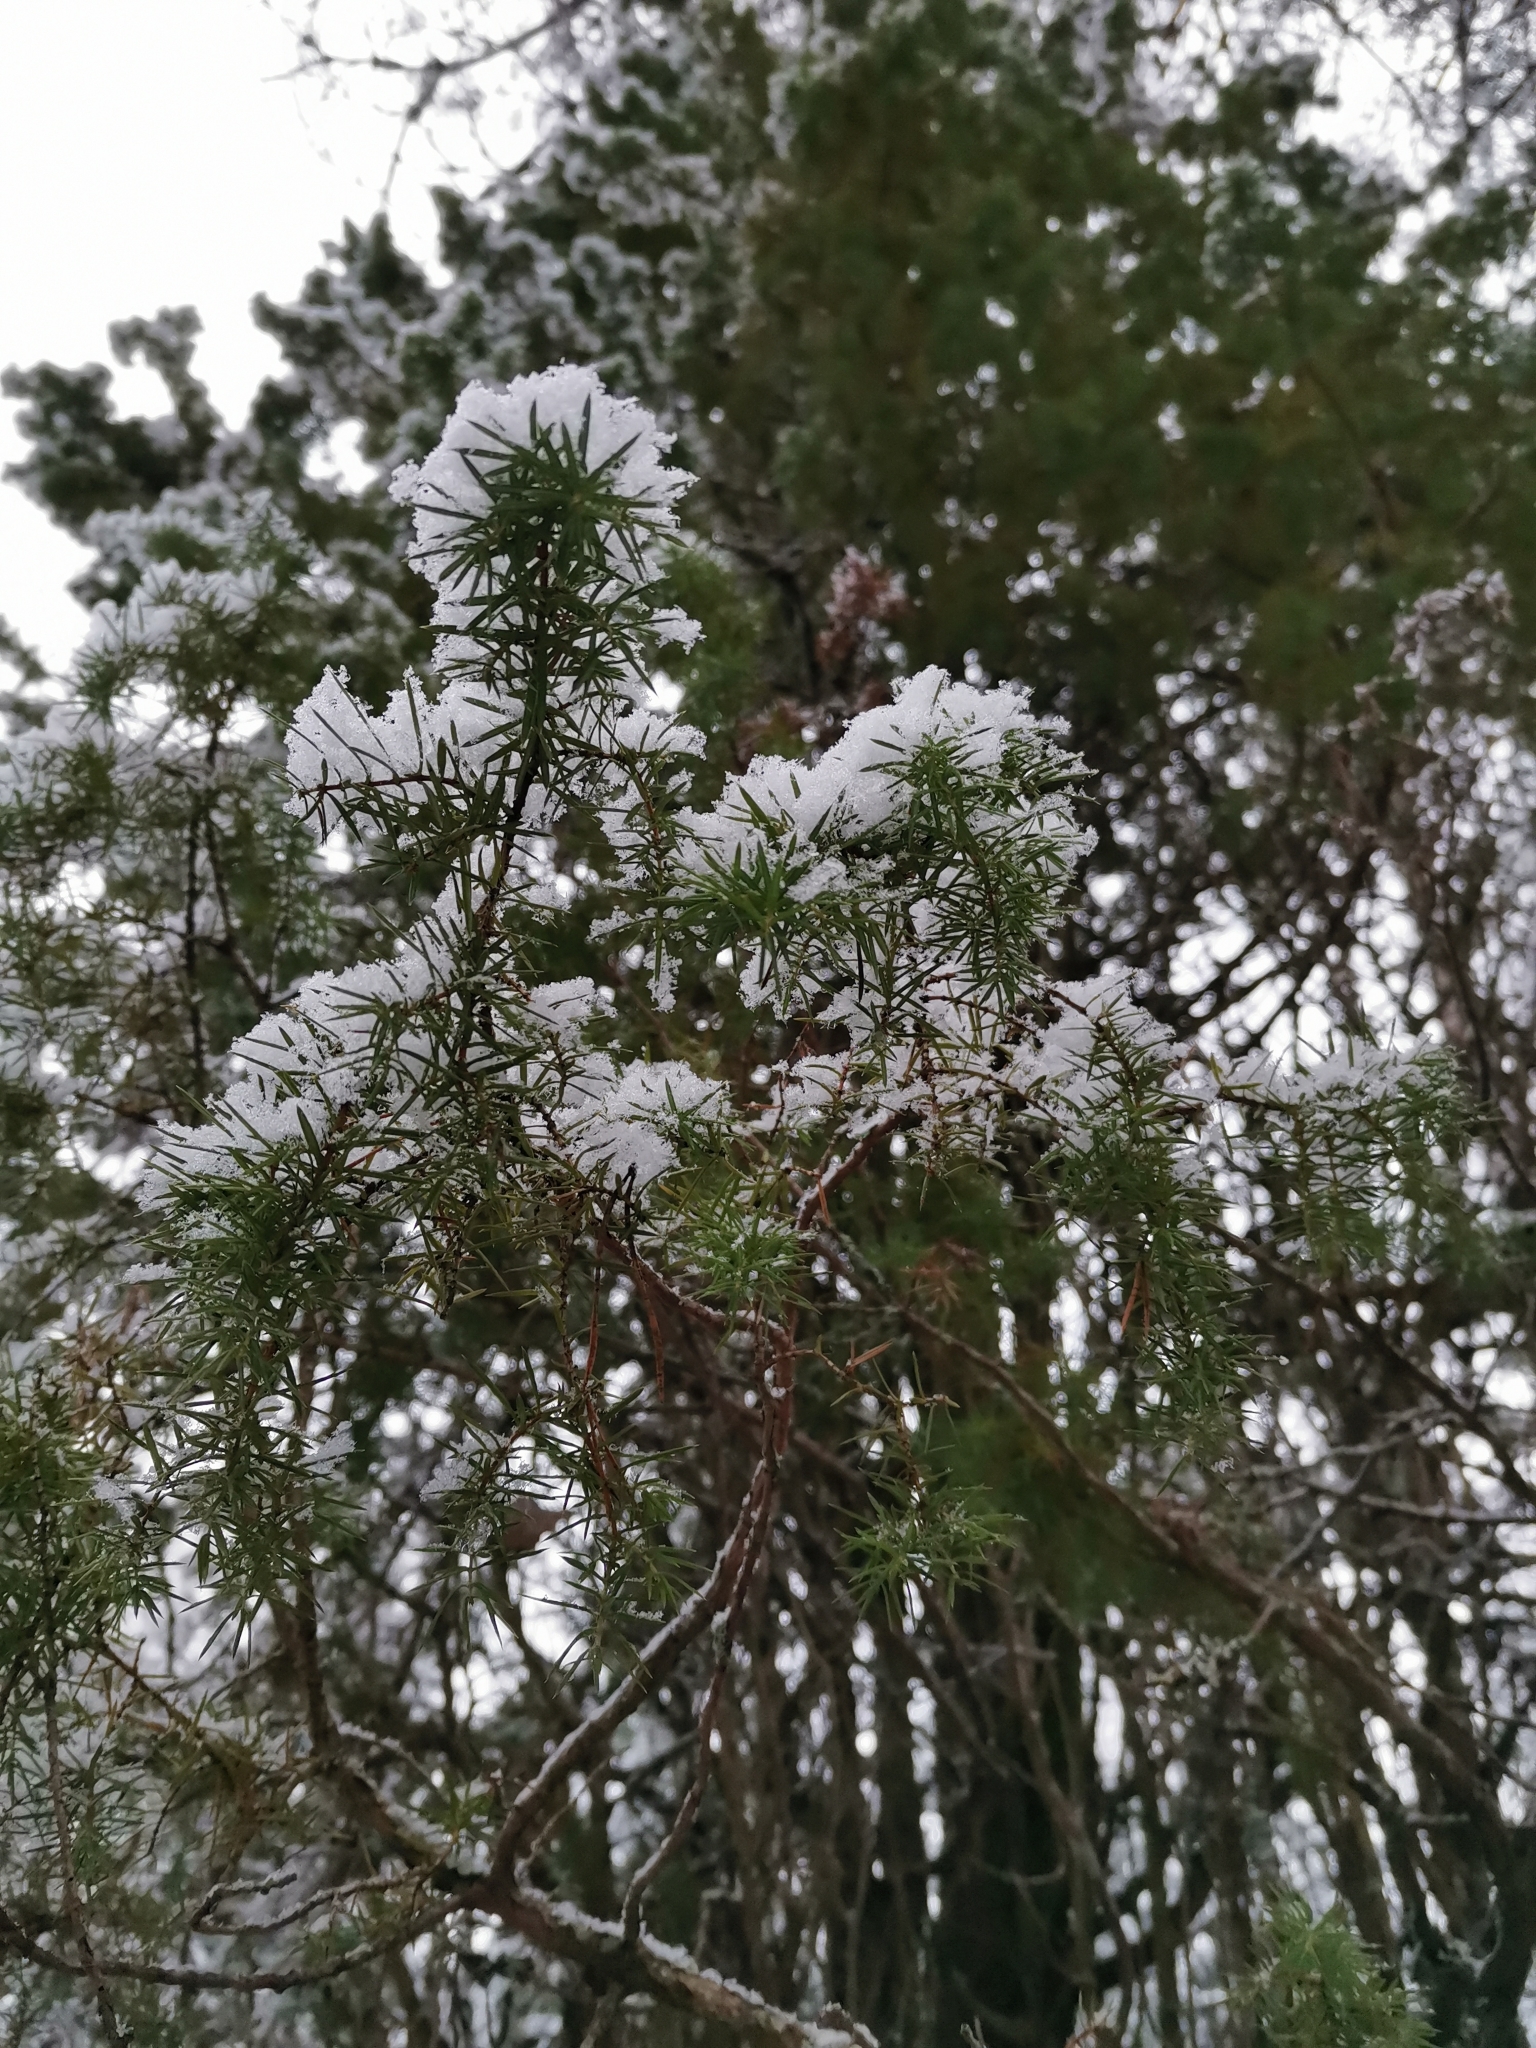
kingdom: Plantae
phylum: Tracheophyta
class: Pinopsida
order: Pinales
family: Cupressaceae
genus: Juniperus
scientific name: Juniperus communis
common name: Common juniper
